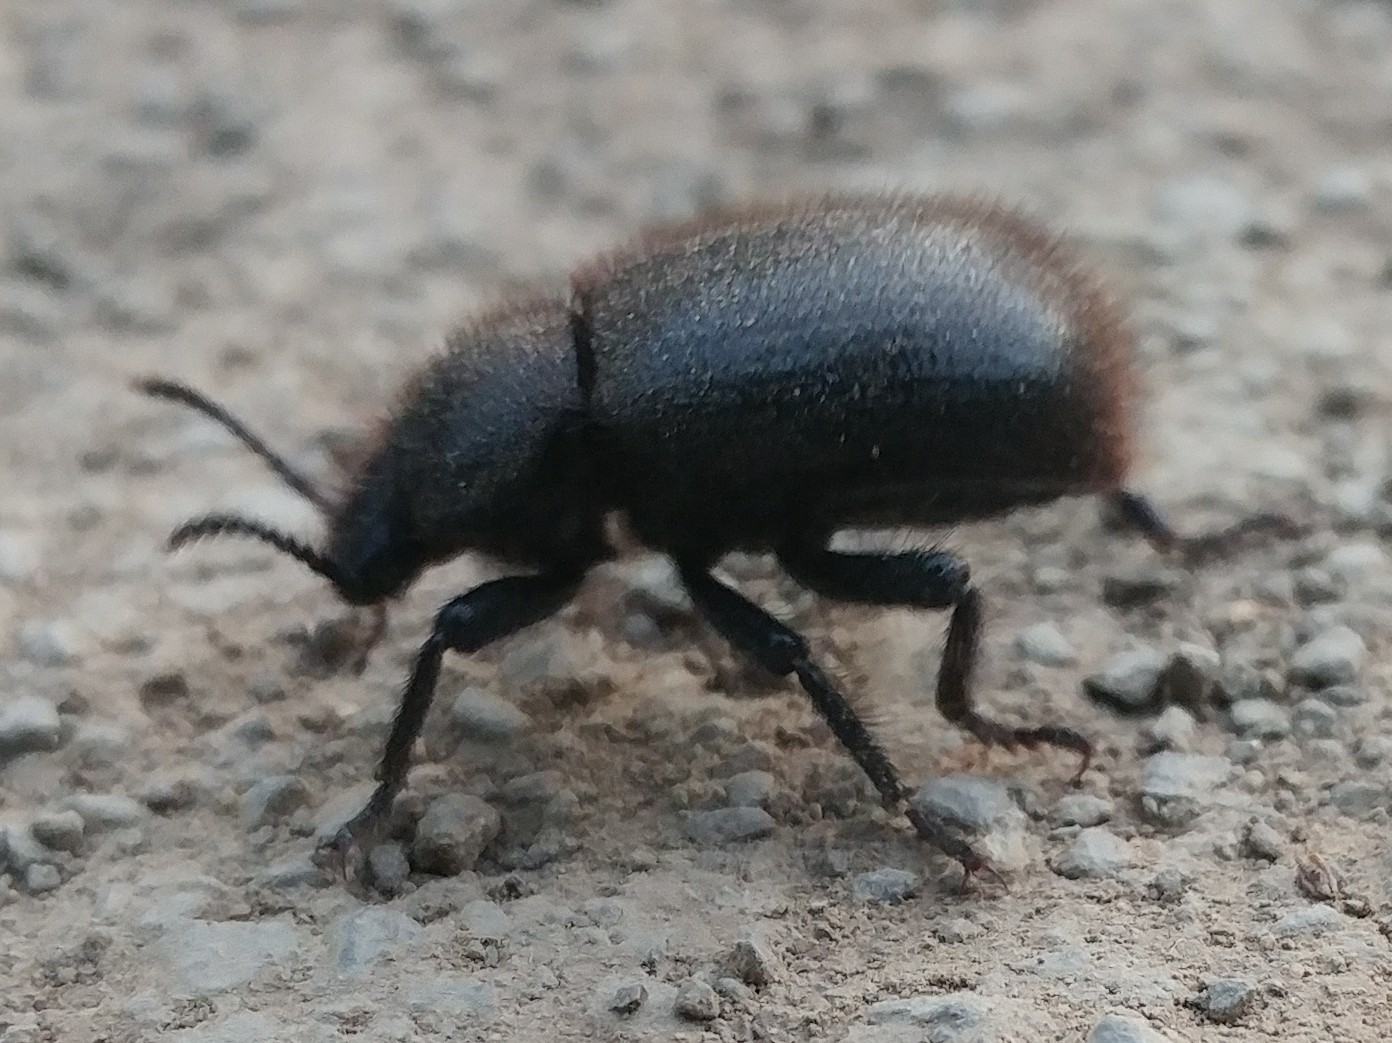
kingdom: Animalia
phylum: Arthropoda
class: Insecta
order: Coleoptera
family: Tenebrionidae
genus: Eleodes
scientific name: Eleodes osculans
